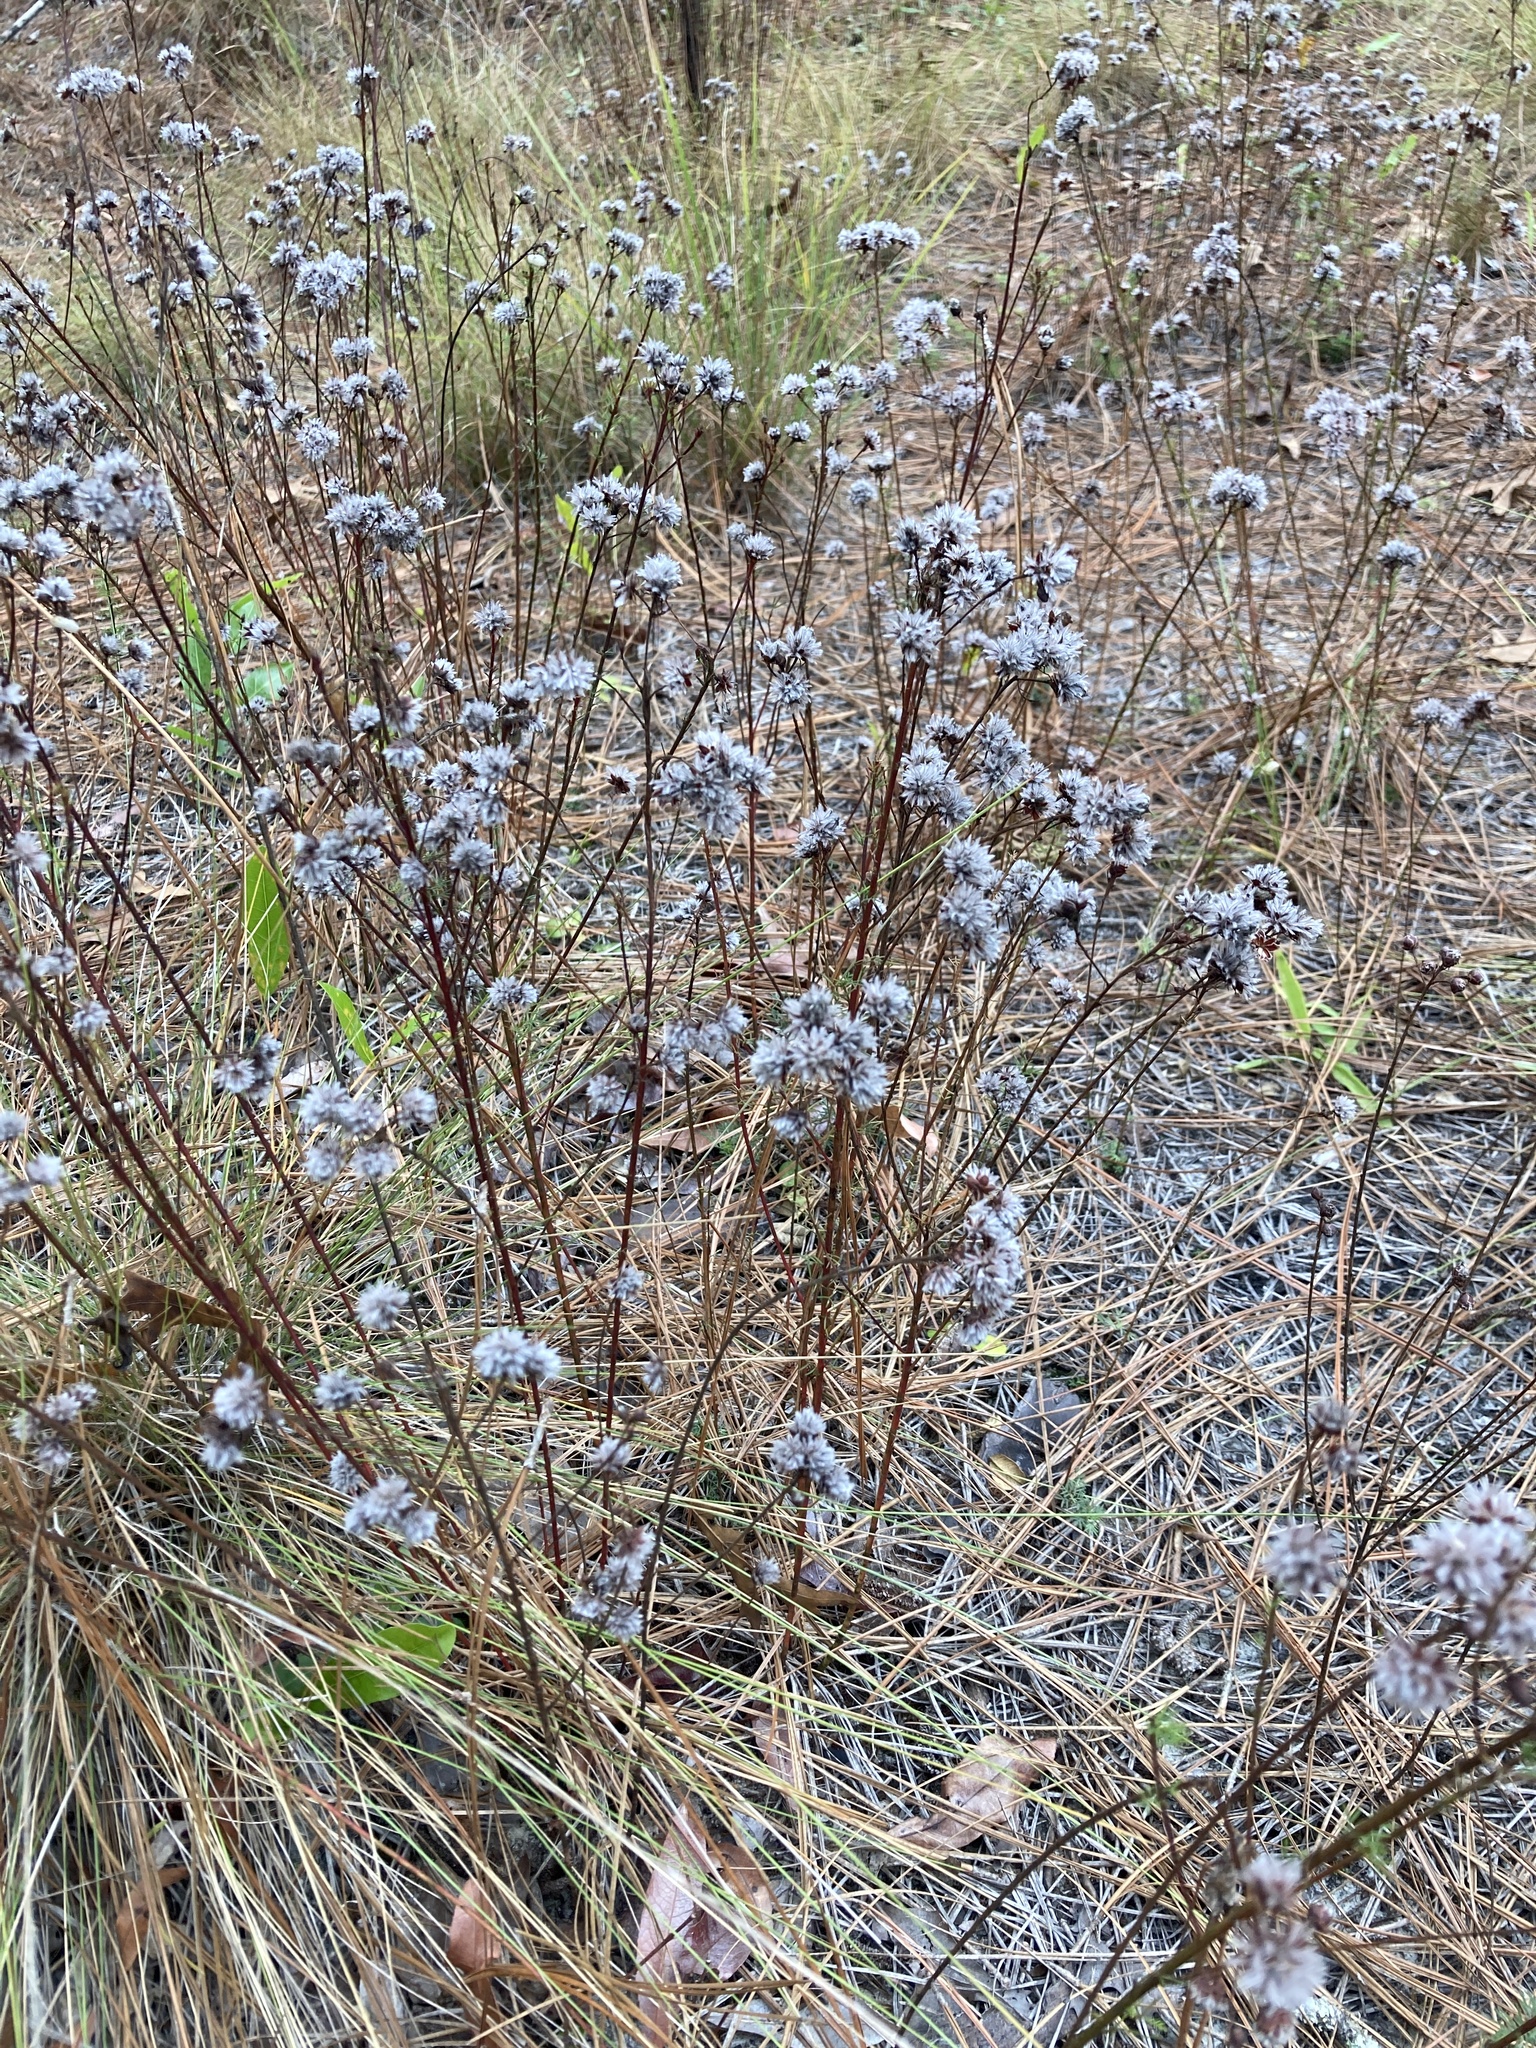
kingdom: Plantae
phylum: Tracheophyta
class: Magnoliopsida
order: Fabales
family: Fabaceae
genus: Dalea
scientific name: Dalea pinnata
